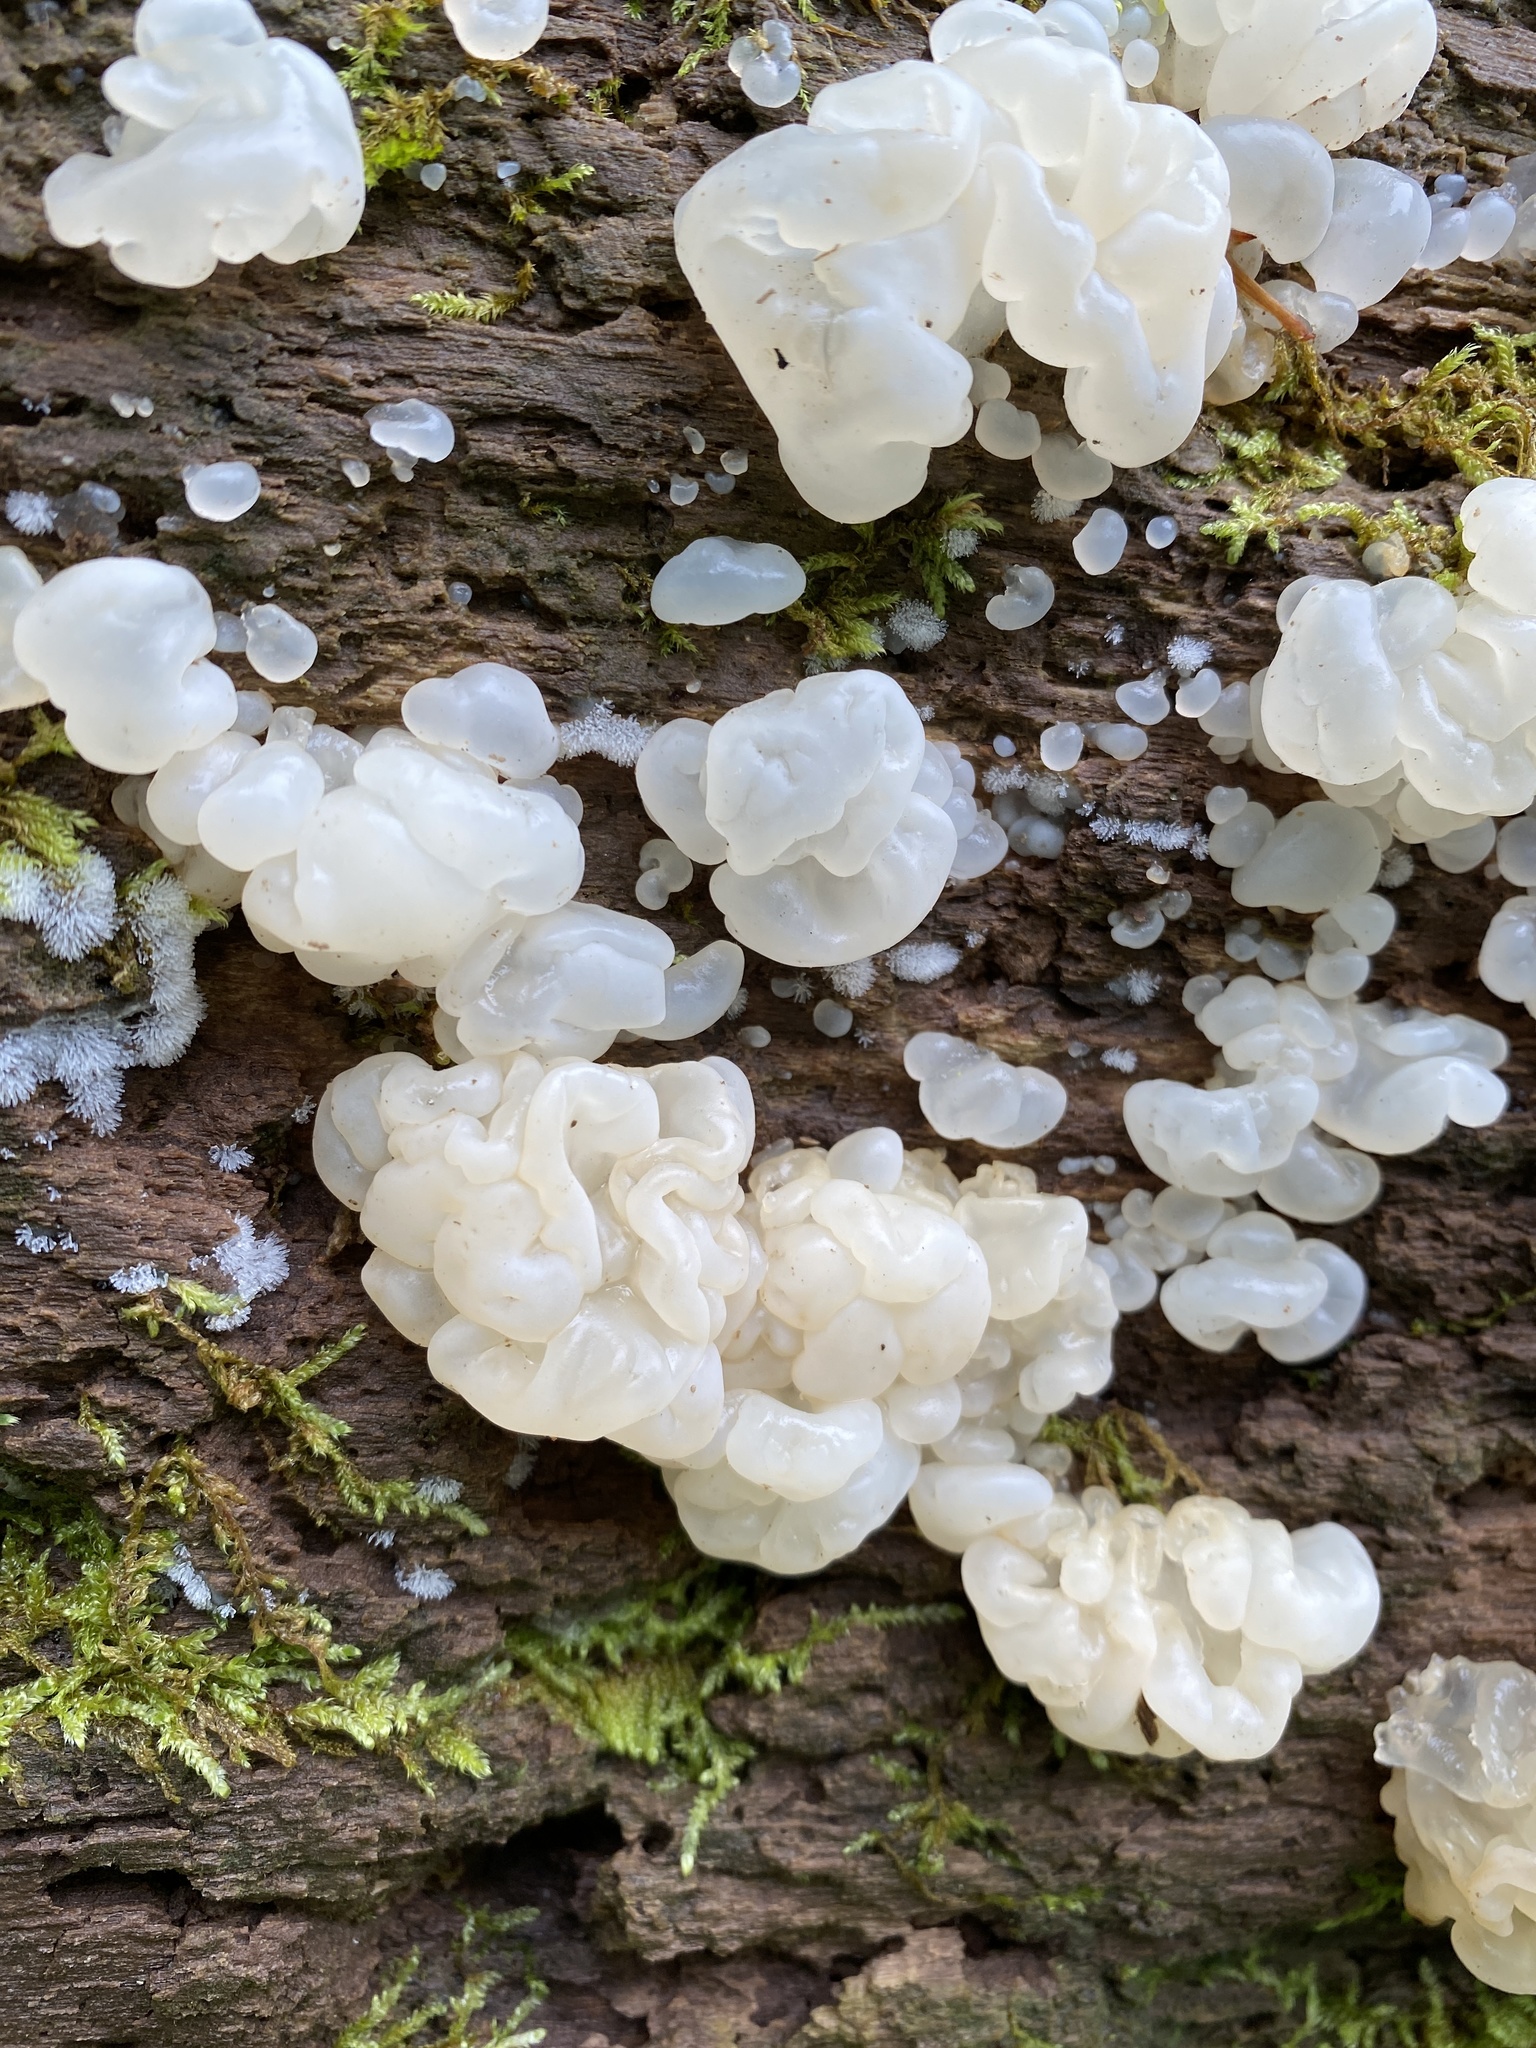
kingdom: Fungi
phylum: Basidiomycota
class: Agaricomycetes
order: Auriculariales
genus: Ductifera
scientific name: Ductifera pululahuana
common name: White jelly fungus
